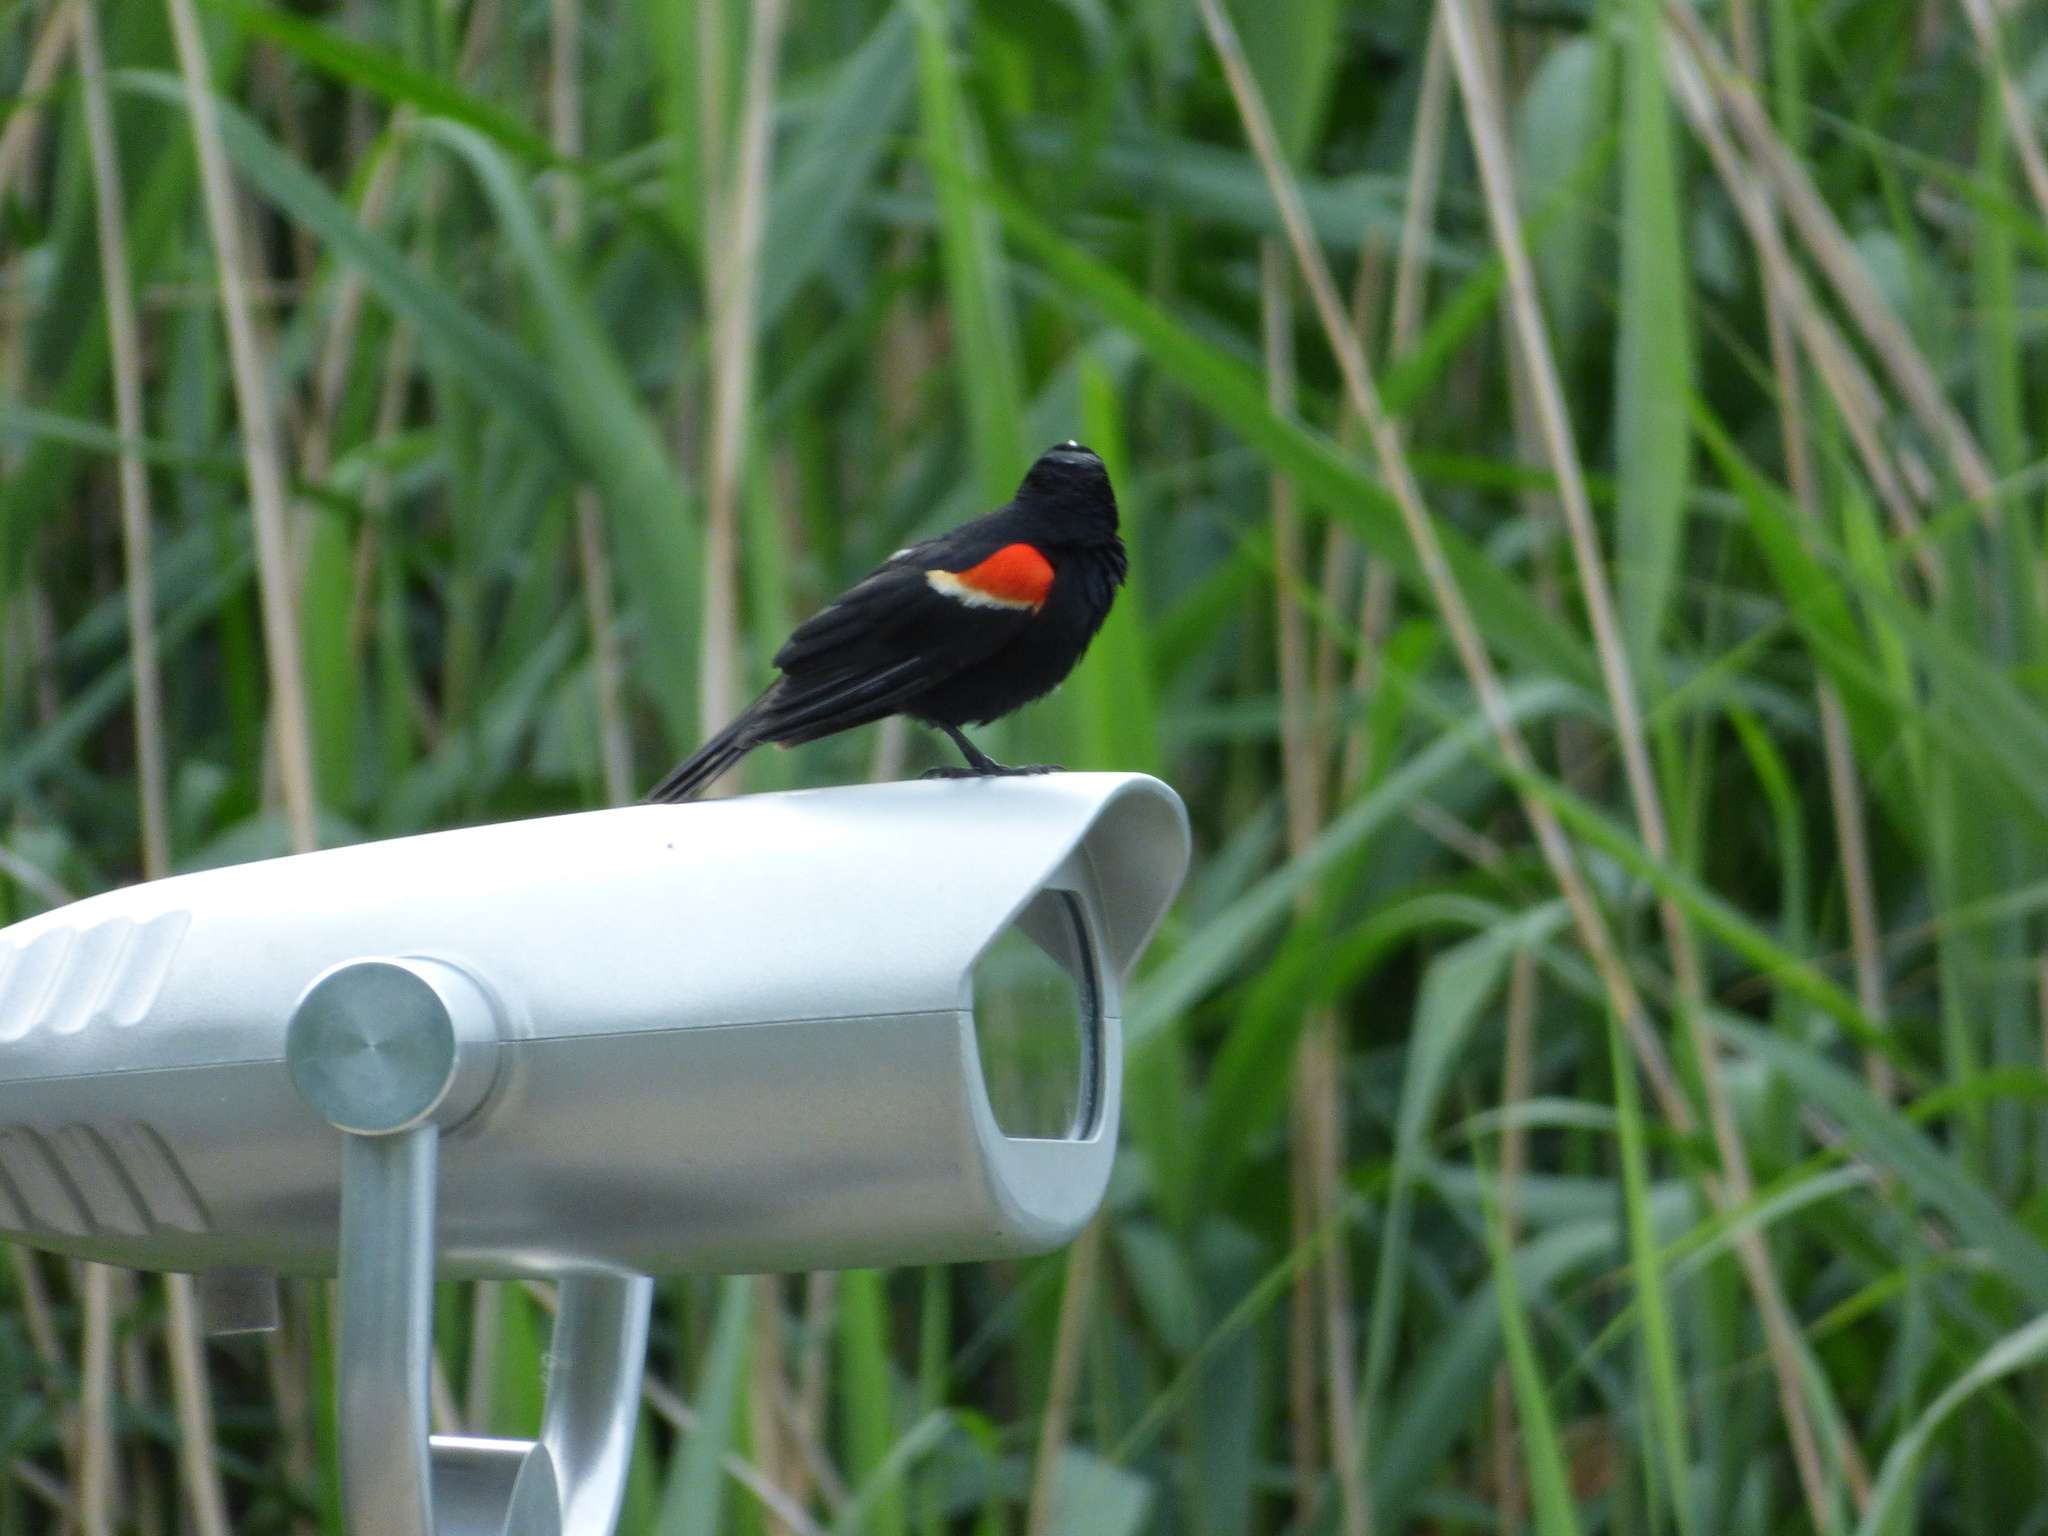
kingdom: Animalia
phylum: Chordata
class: Aves
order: Passeriformes
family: Icteridae
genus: Agelaius
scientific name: Agelaius phoeniceus
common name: Red-winged blackbird
